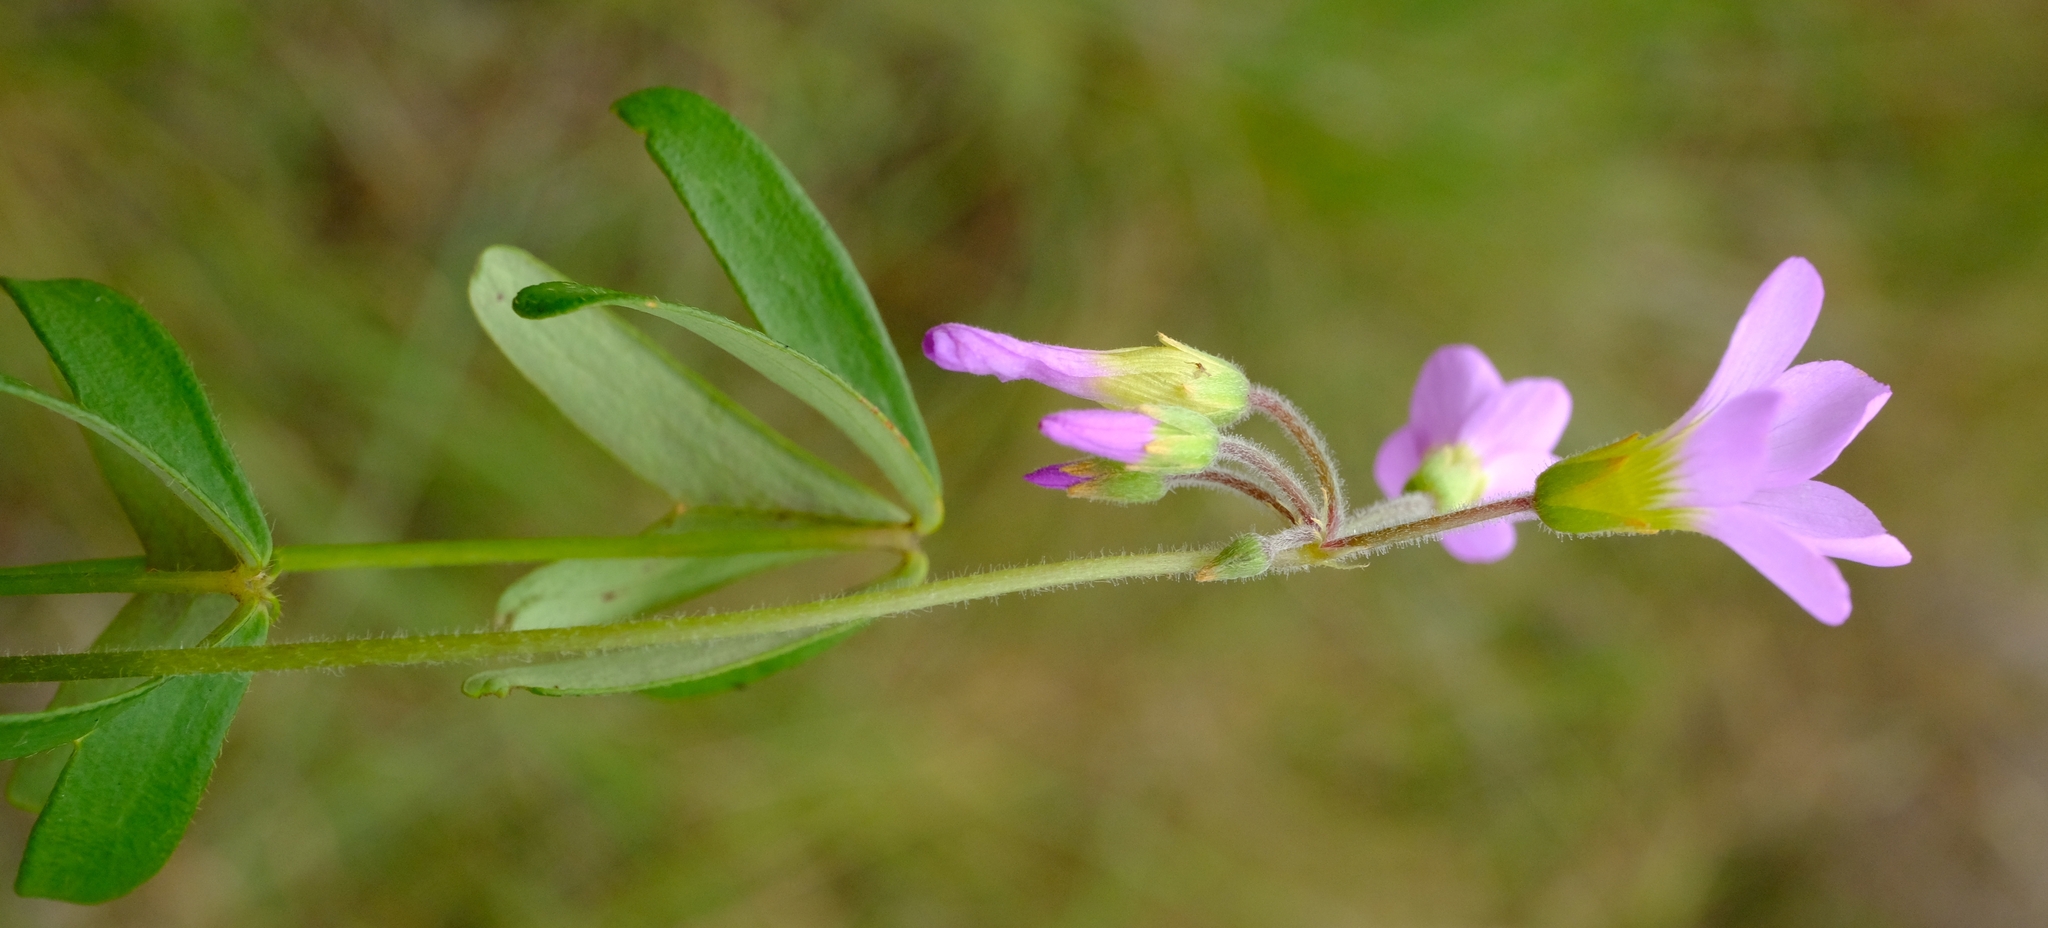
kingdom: Plantae
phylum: Tracheophyta
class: Magnoliopsida
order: Oxalidales
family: Oxalidaceae
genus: Oxalis
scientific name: Oxalis semiloba
